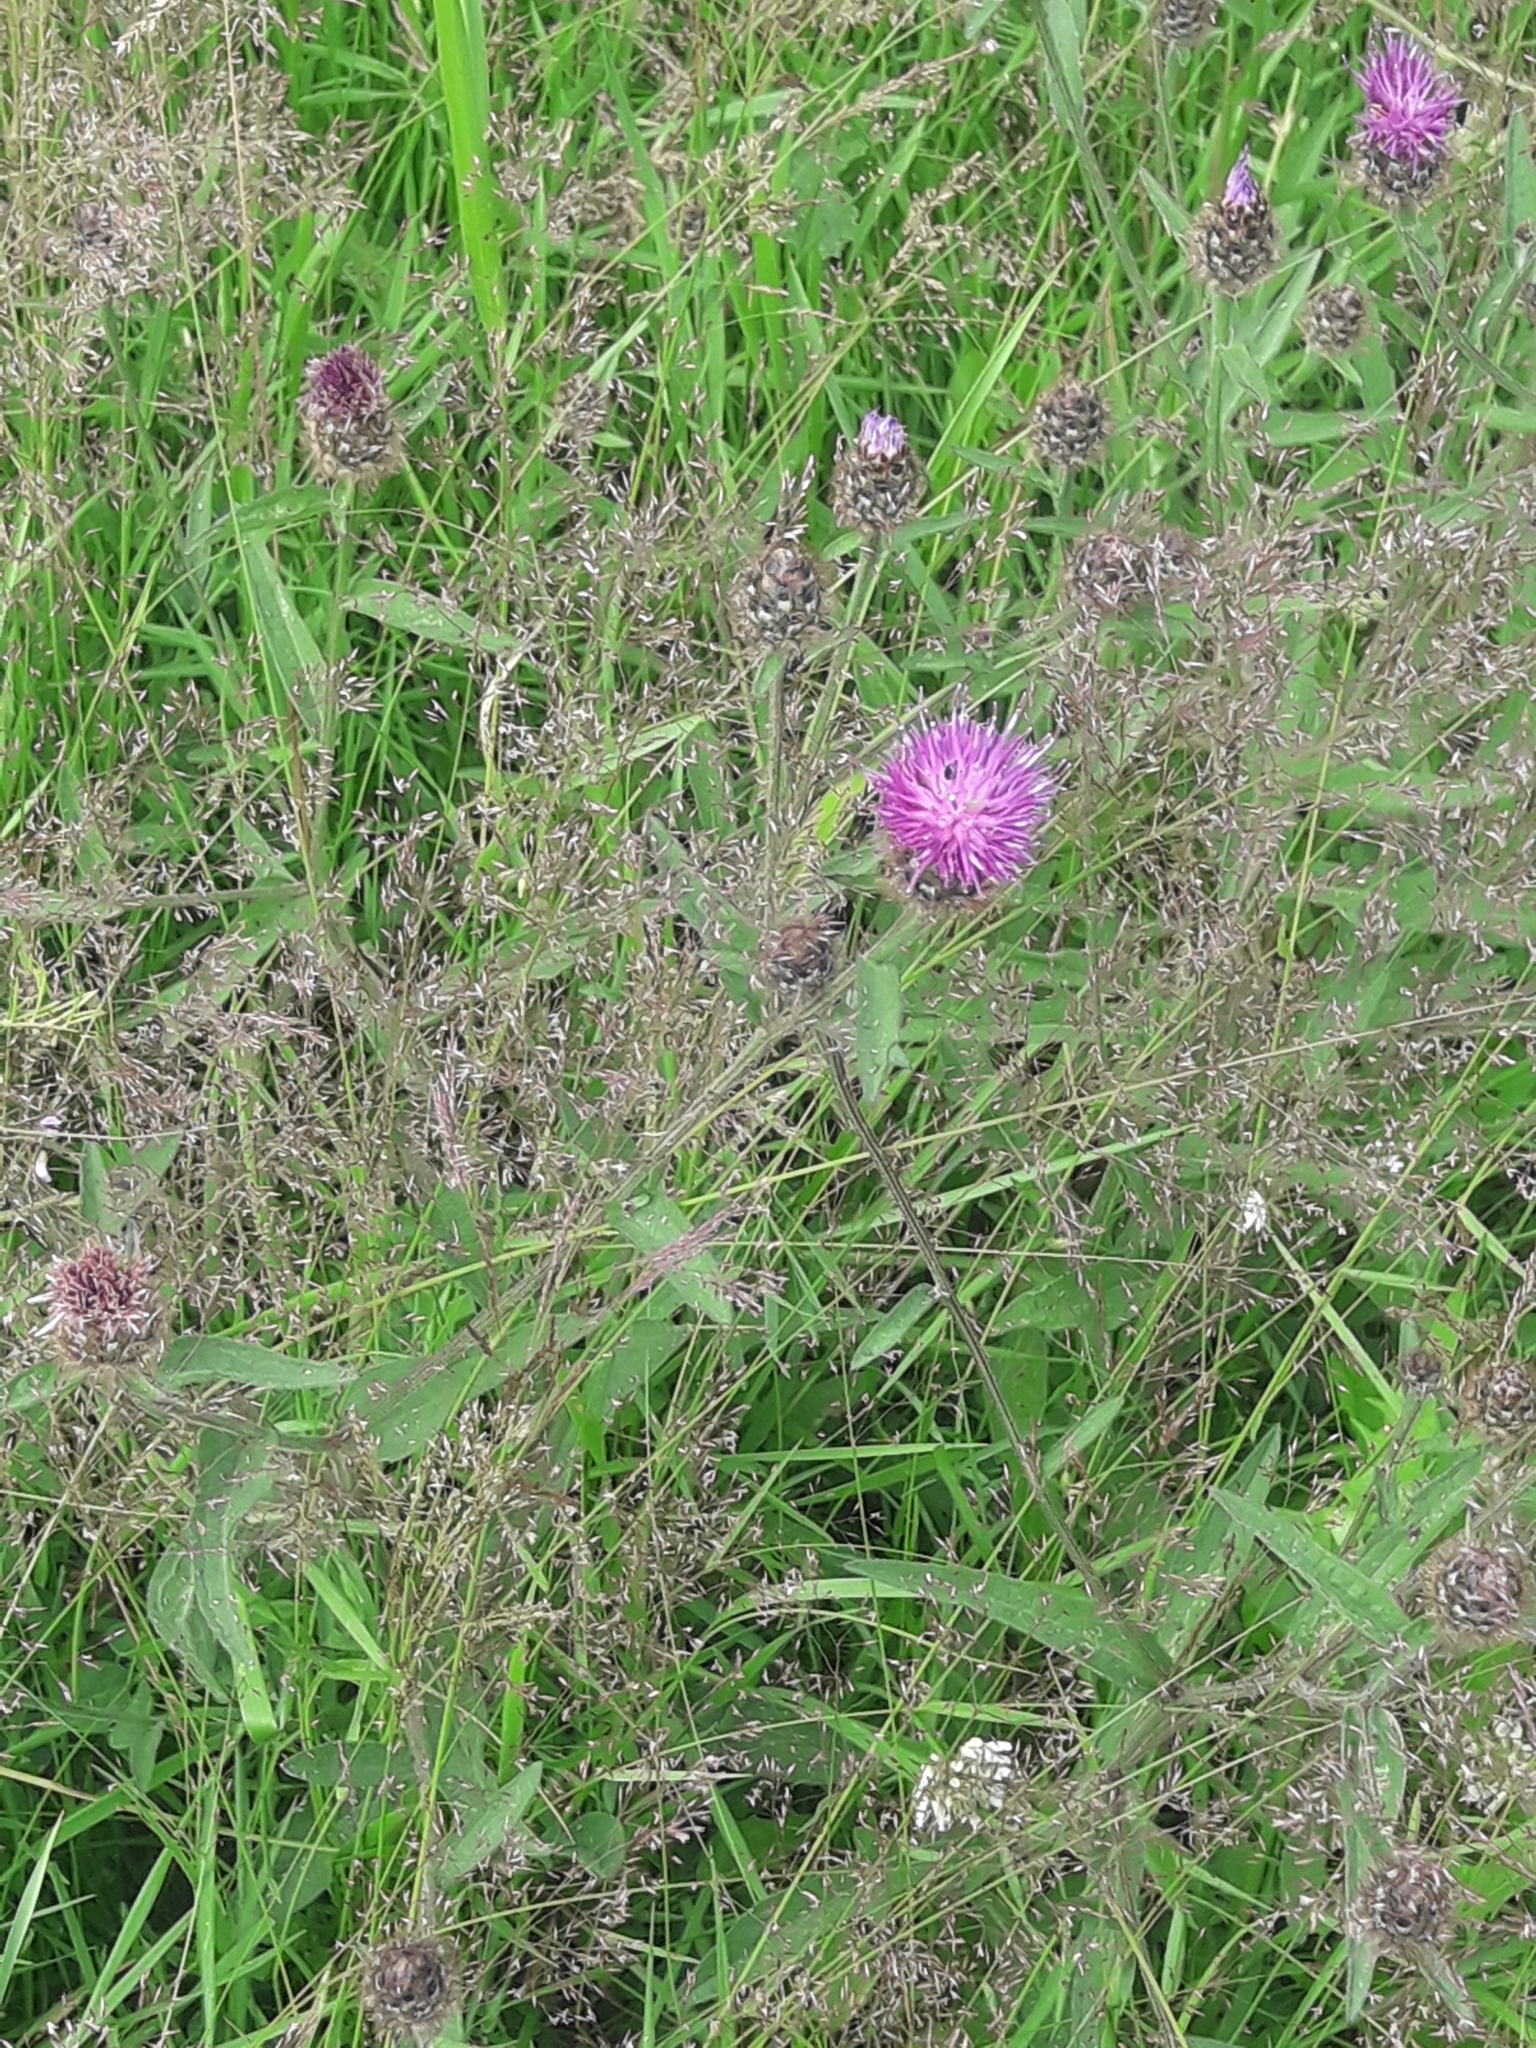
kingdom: Plantae
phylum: Tracheophyta
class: Magnoliopsida
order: Asterales
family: Asteraceae
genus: Centaurea
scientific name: Centaurea nigra
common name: Lesser knapweed
